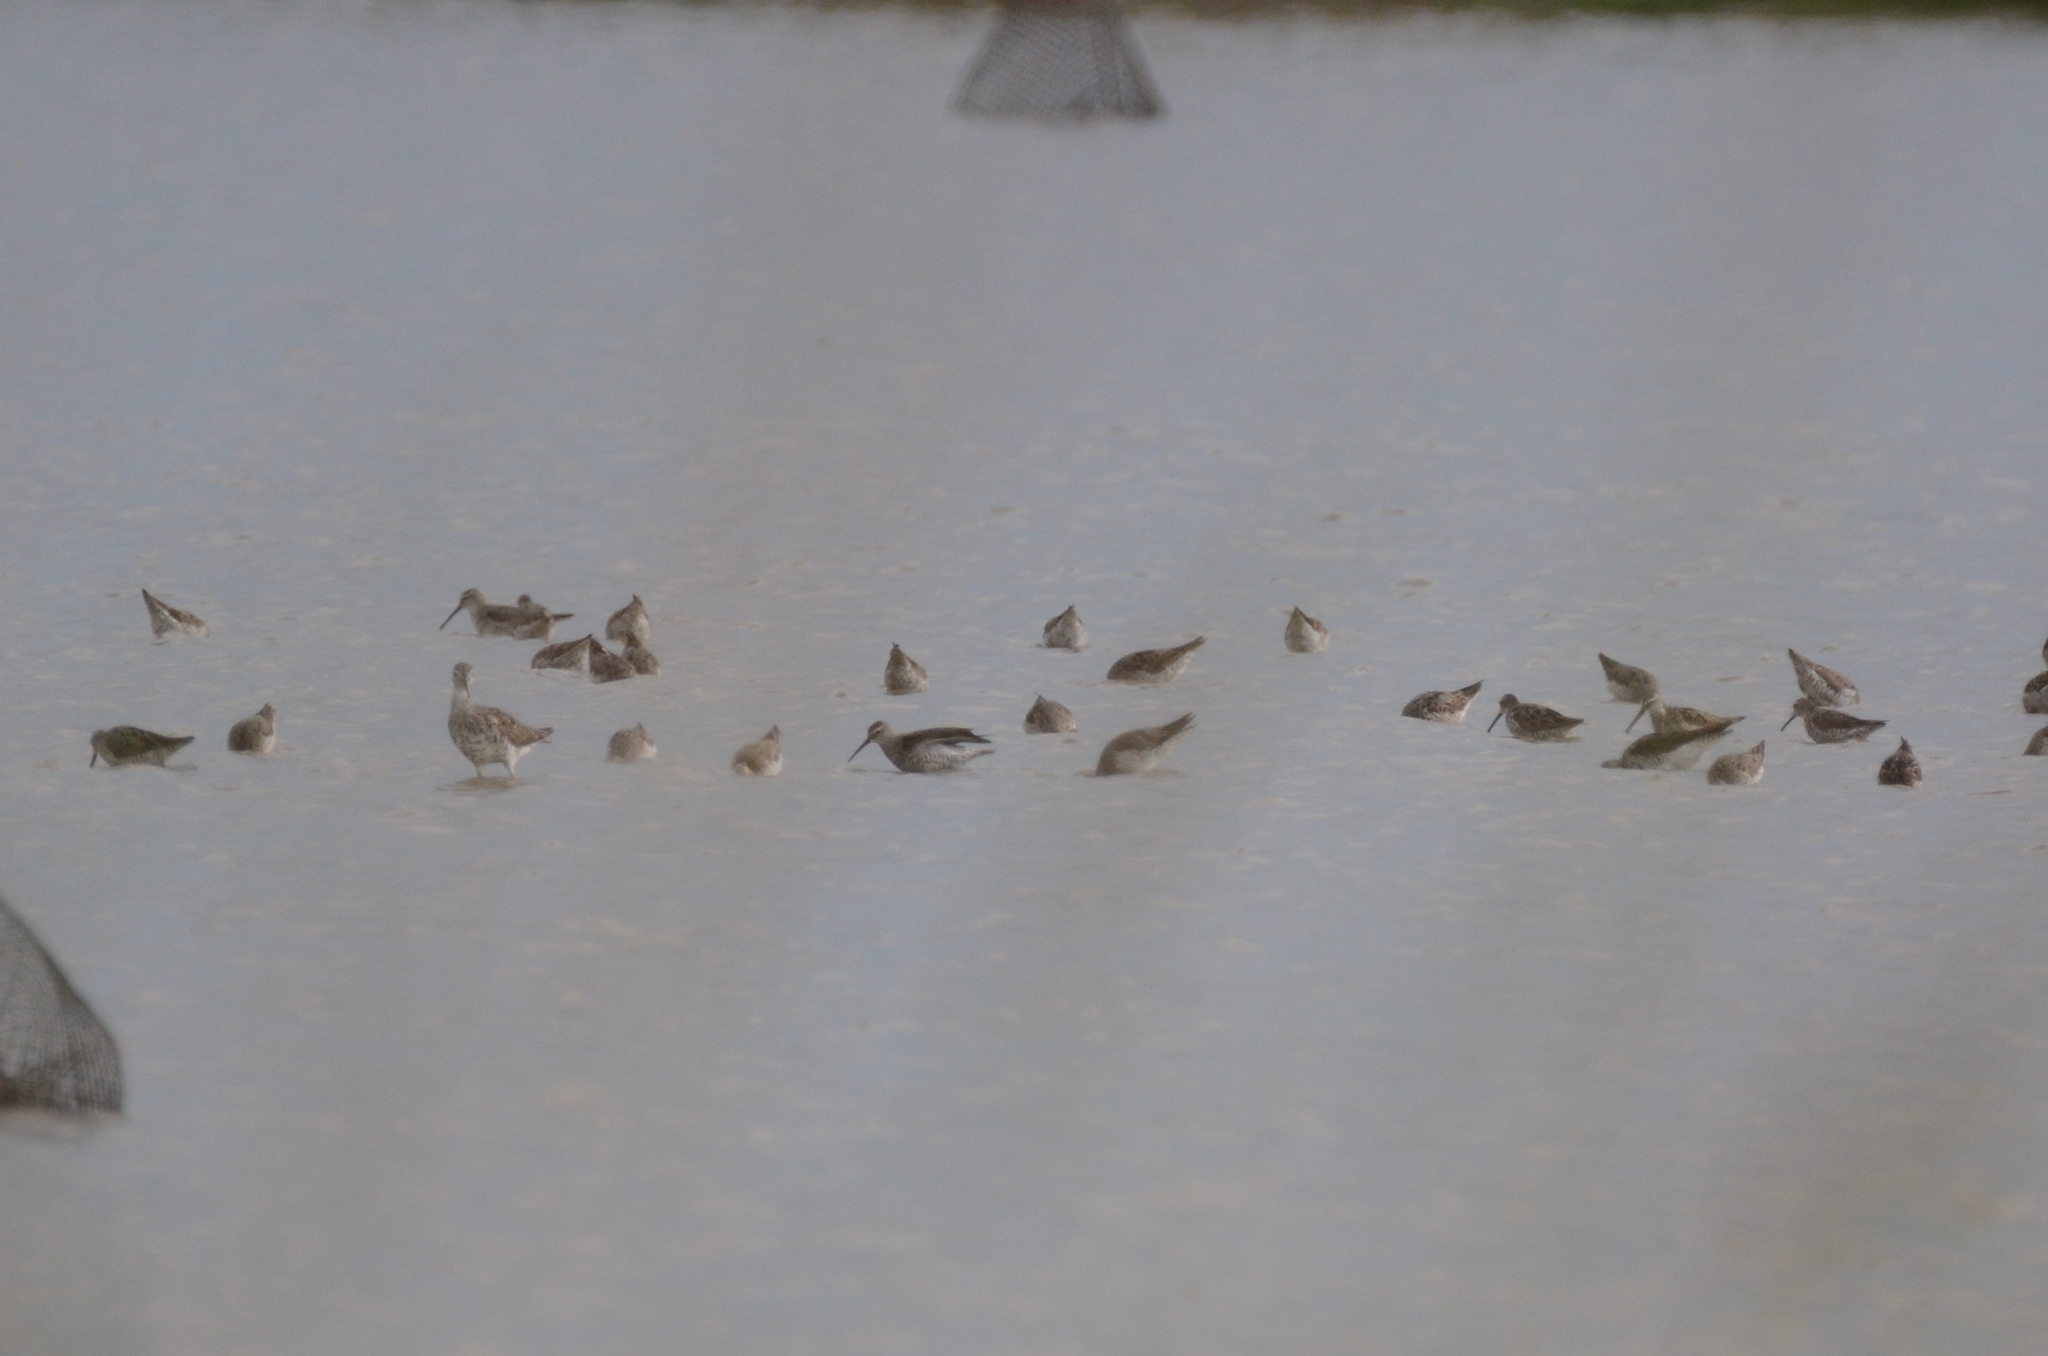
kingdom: Animalia
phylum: Chordata
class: Aves
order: Charadriiformes
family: Scolopacidae
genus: Calidris
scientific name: Calidris himantopus
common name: Stilt sandpiper
